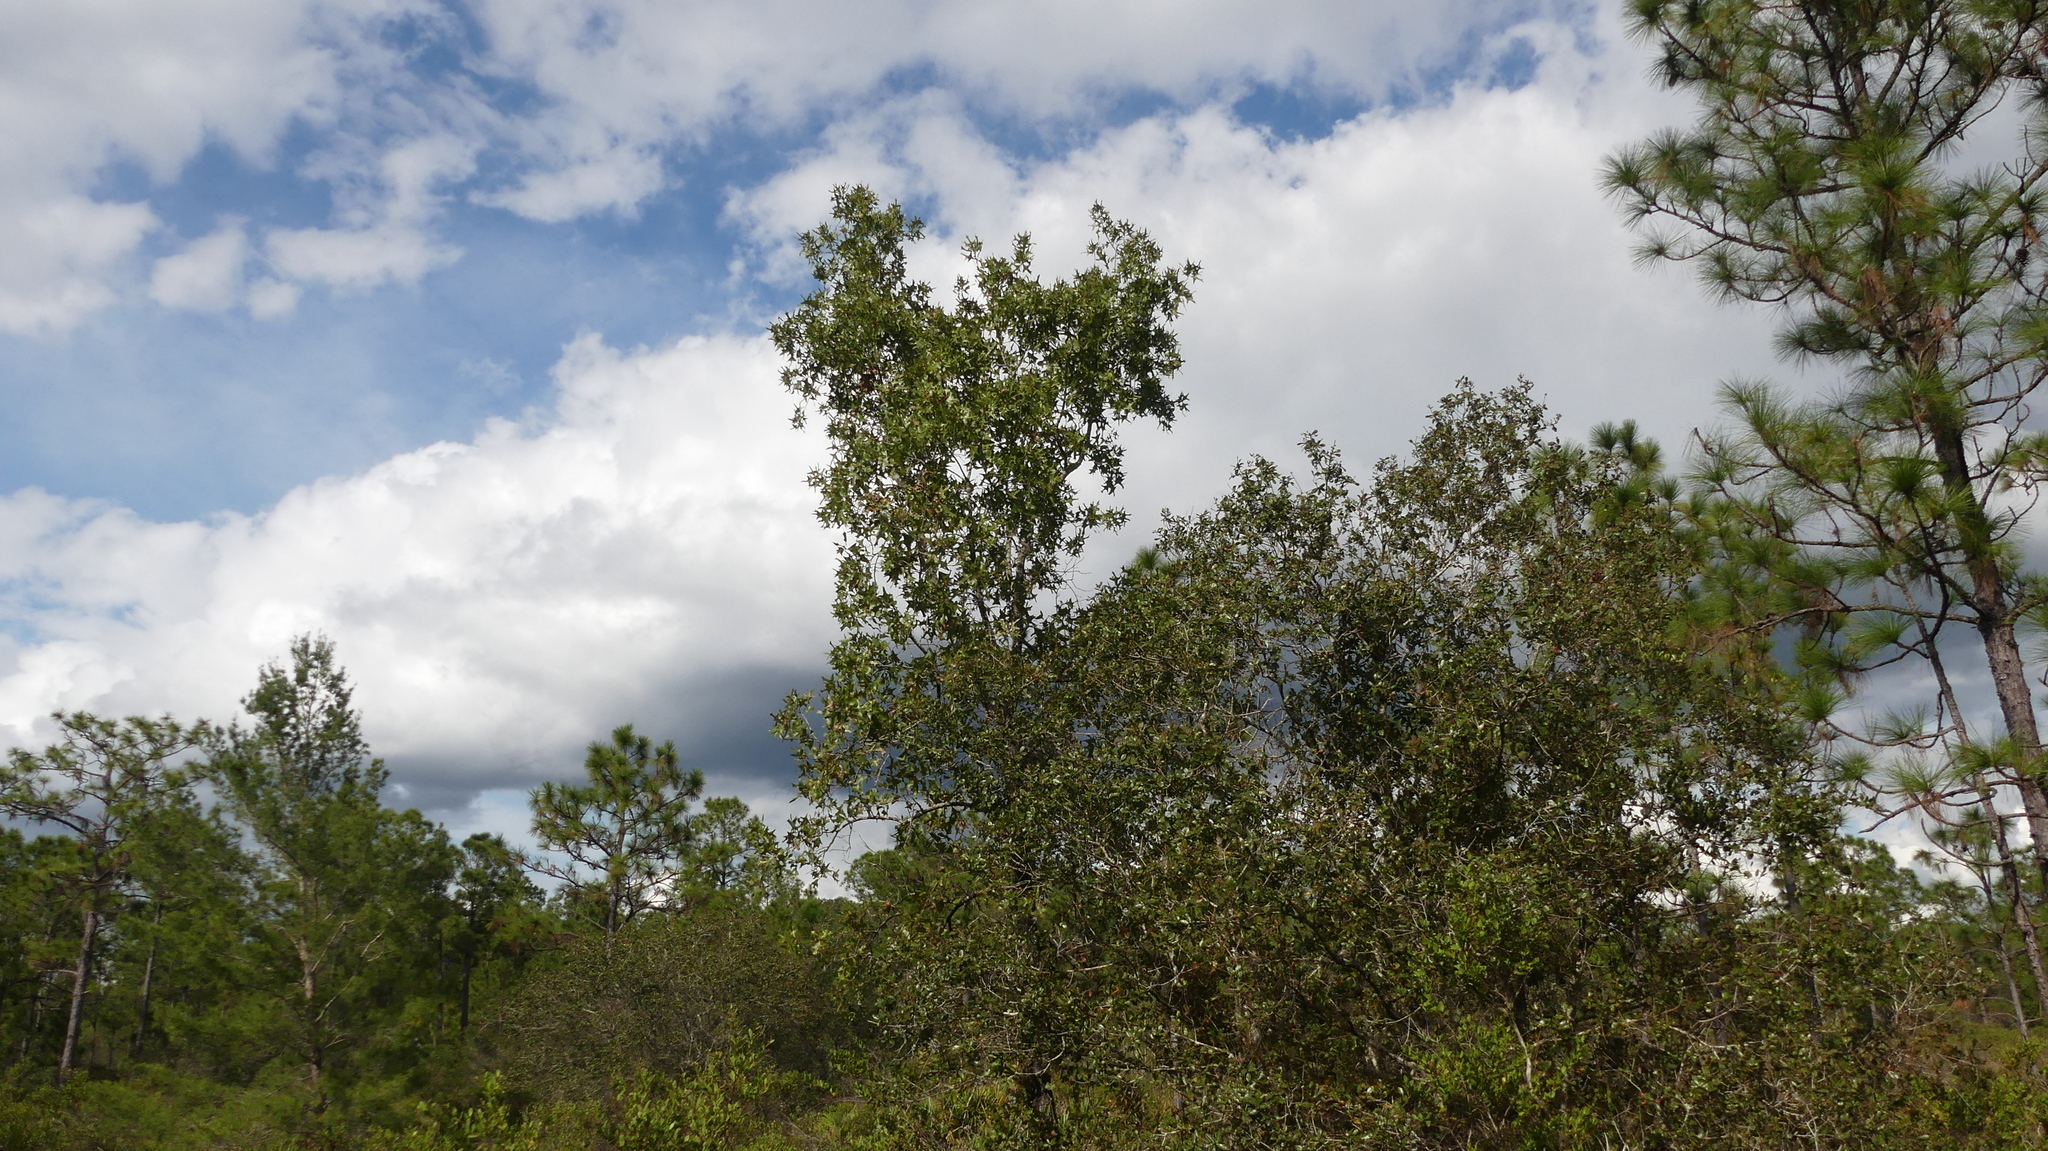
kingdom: Plantae
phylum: Tracheophyta
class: Magnoliopsida
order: Fagales
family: Fagaceae
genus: Quercus
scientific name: Quercus laevis
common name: Turkey oak
